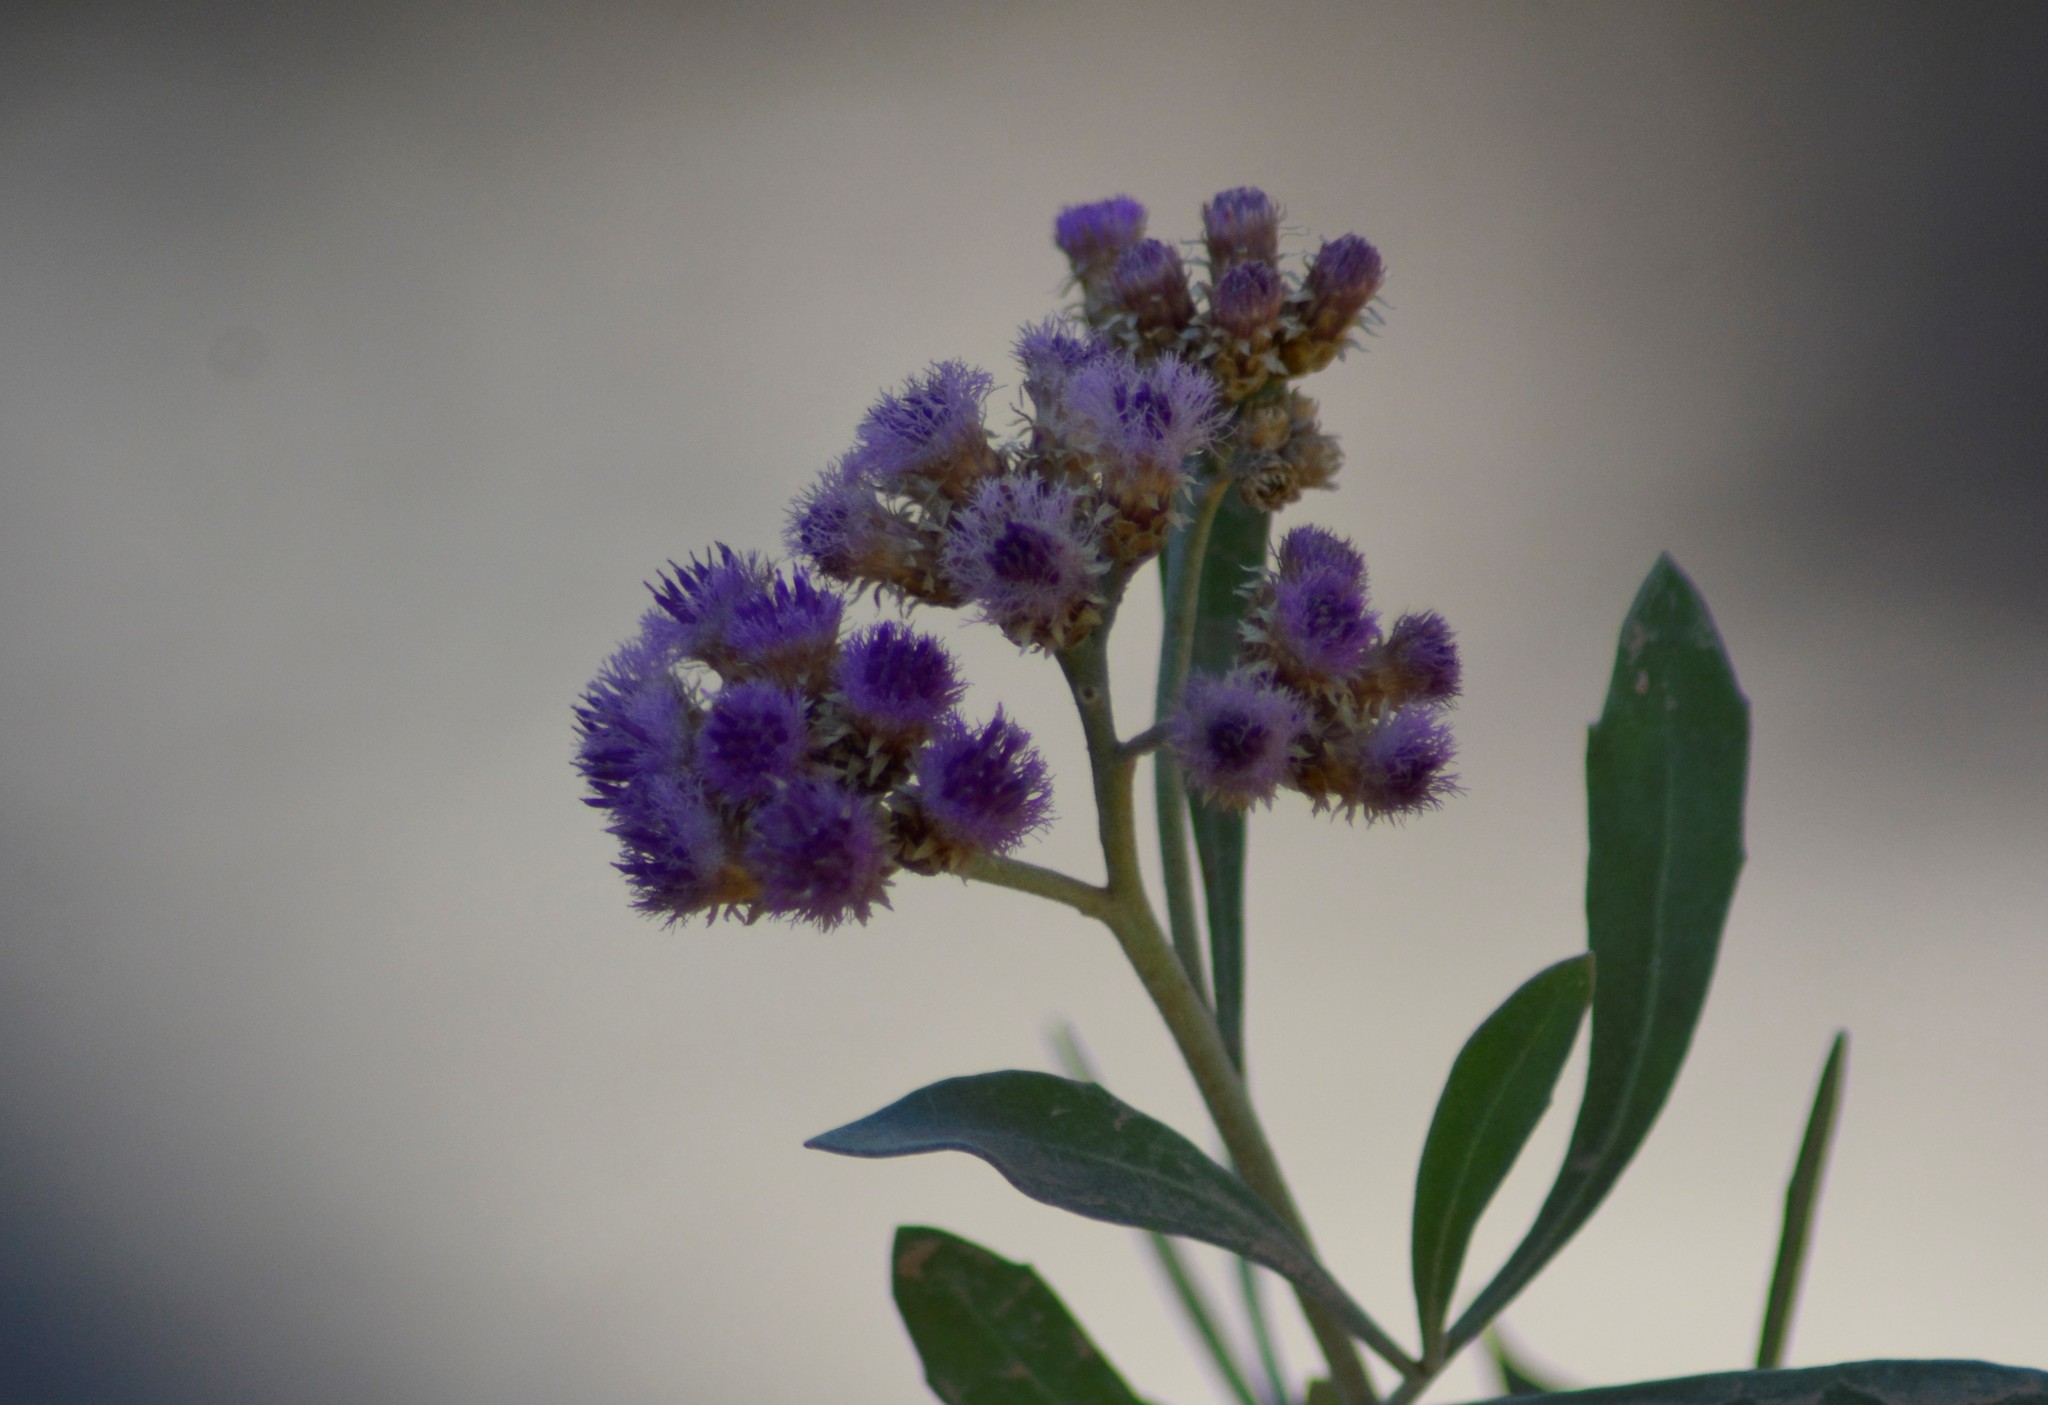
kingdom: Plantae
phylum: Tracheophyta
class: Magnoliopsida
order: Asterales
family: Asteraceae
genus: Tessaria
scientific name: Tessaria absinthioides
